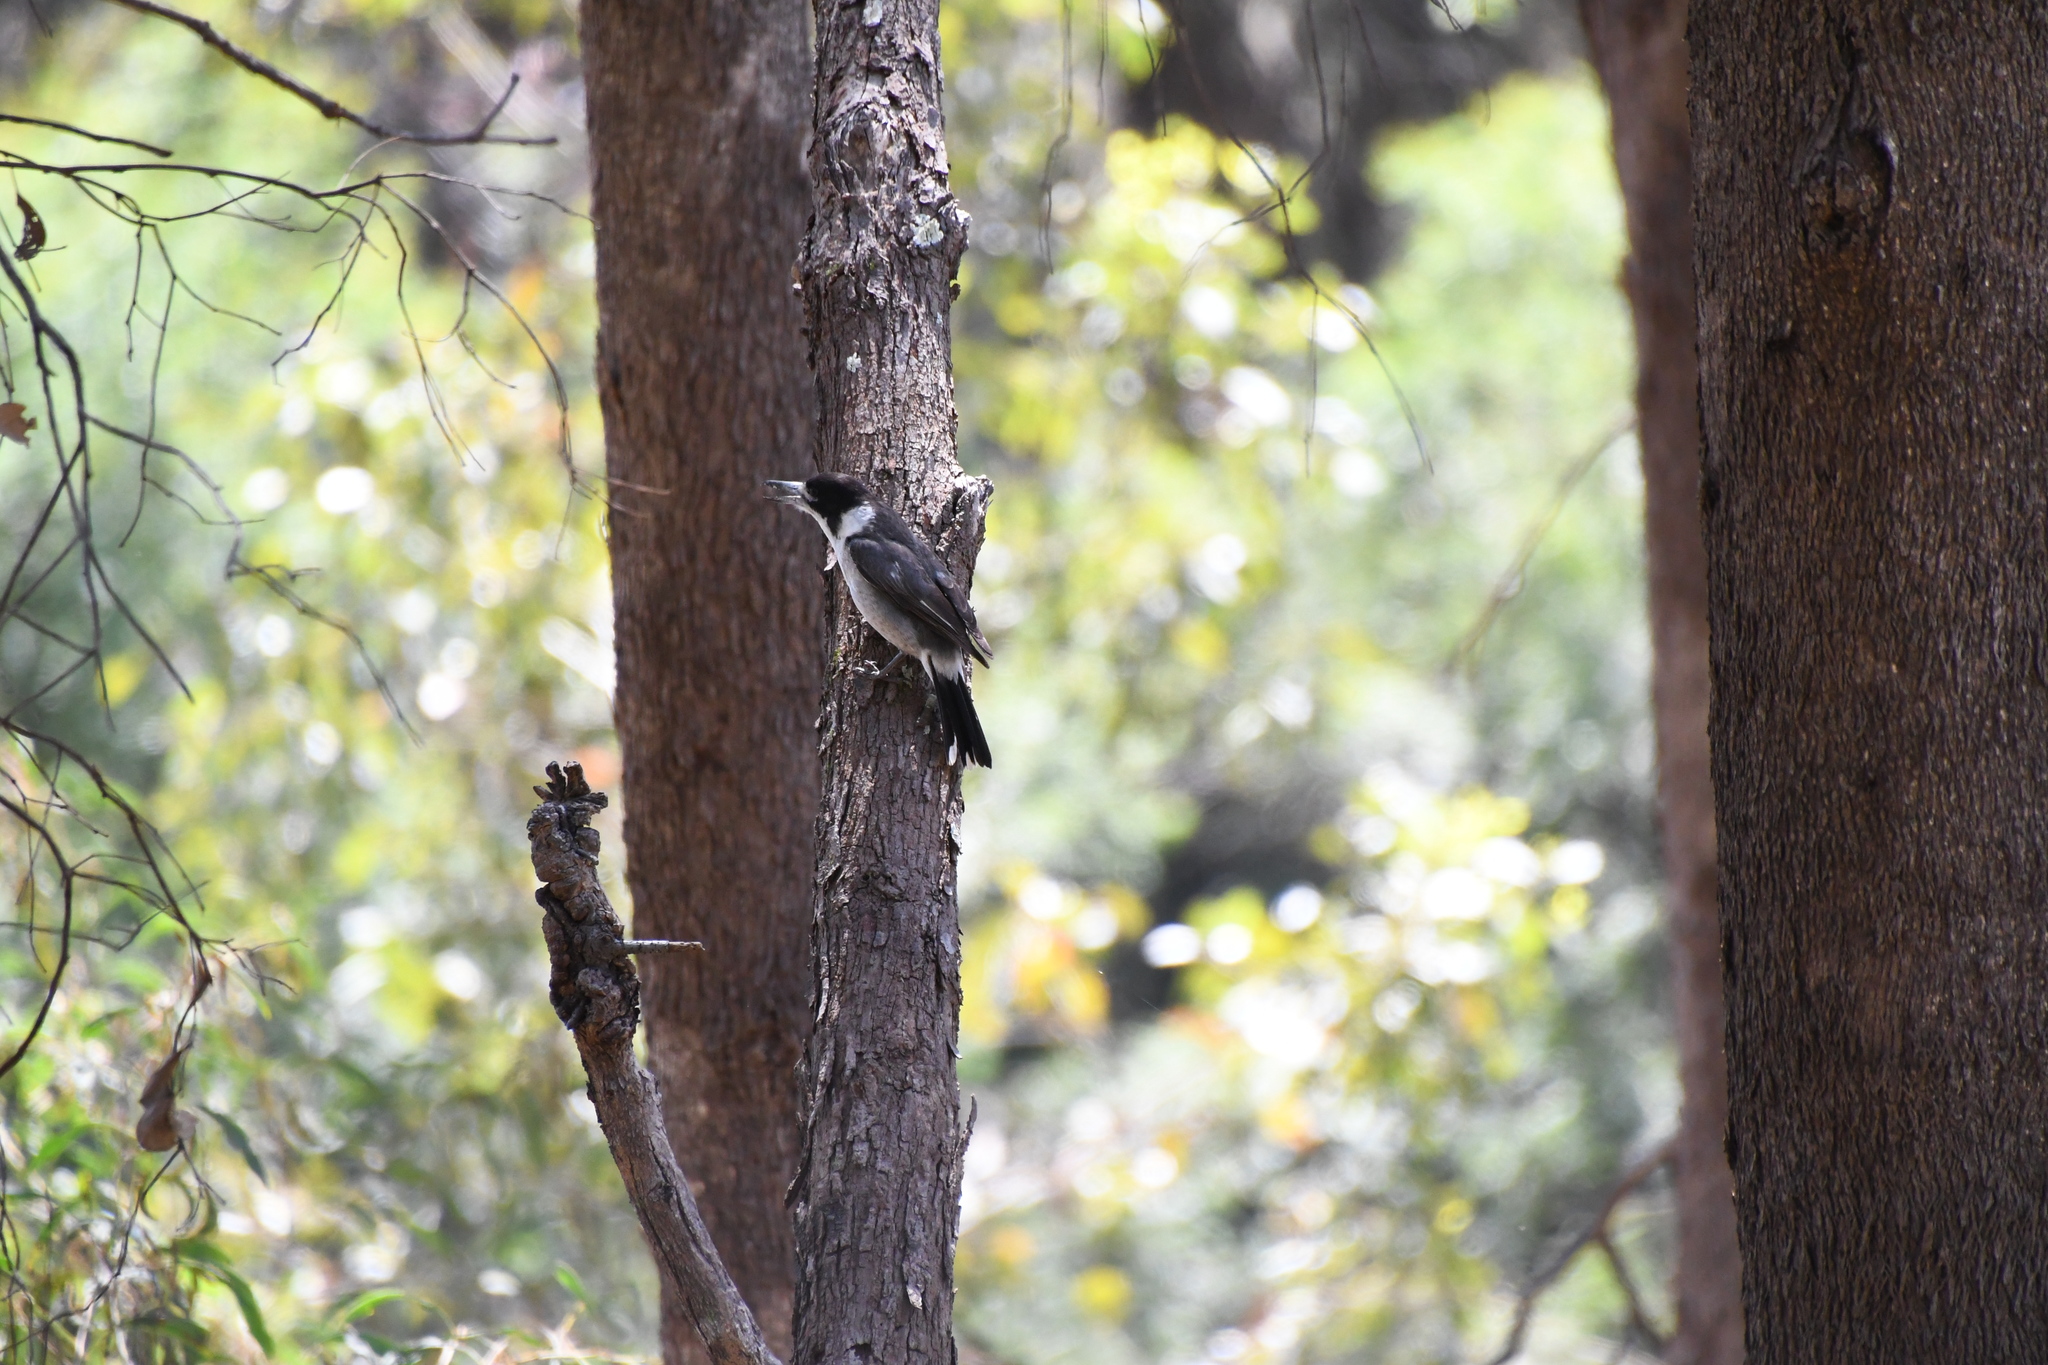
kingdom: Animalia
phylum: Chordata
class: Aves
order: Passeriformes
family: Cracticidae
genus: Cracticus
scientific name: Cracticus torquatus
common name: Grey butcherbird
